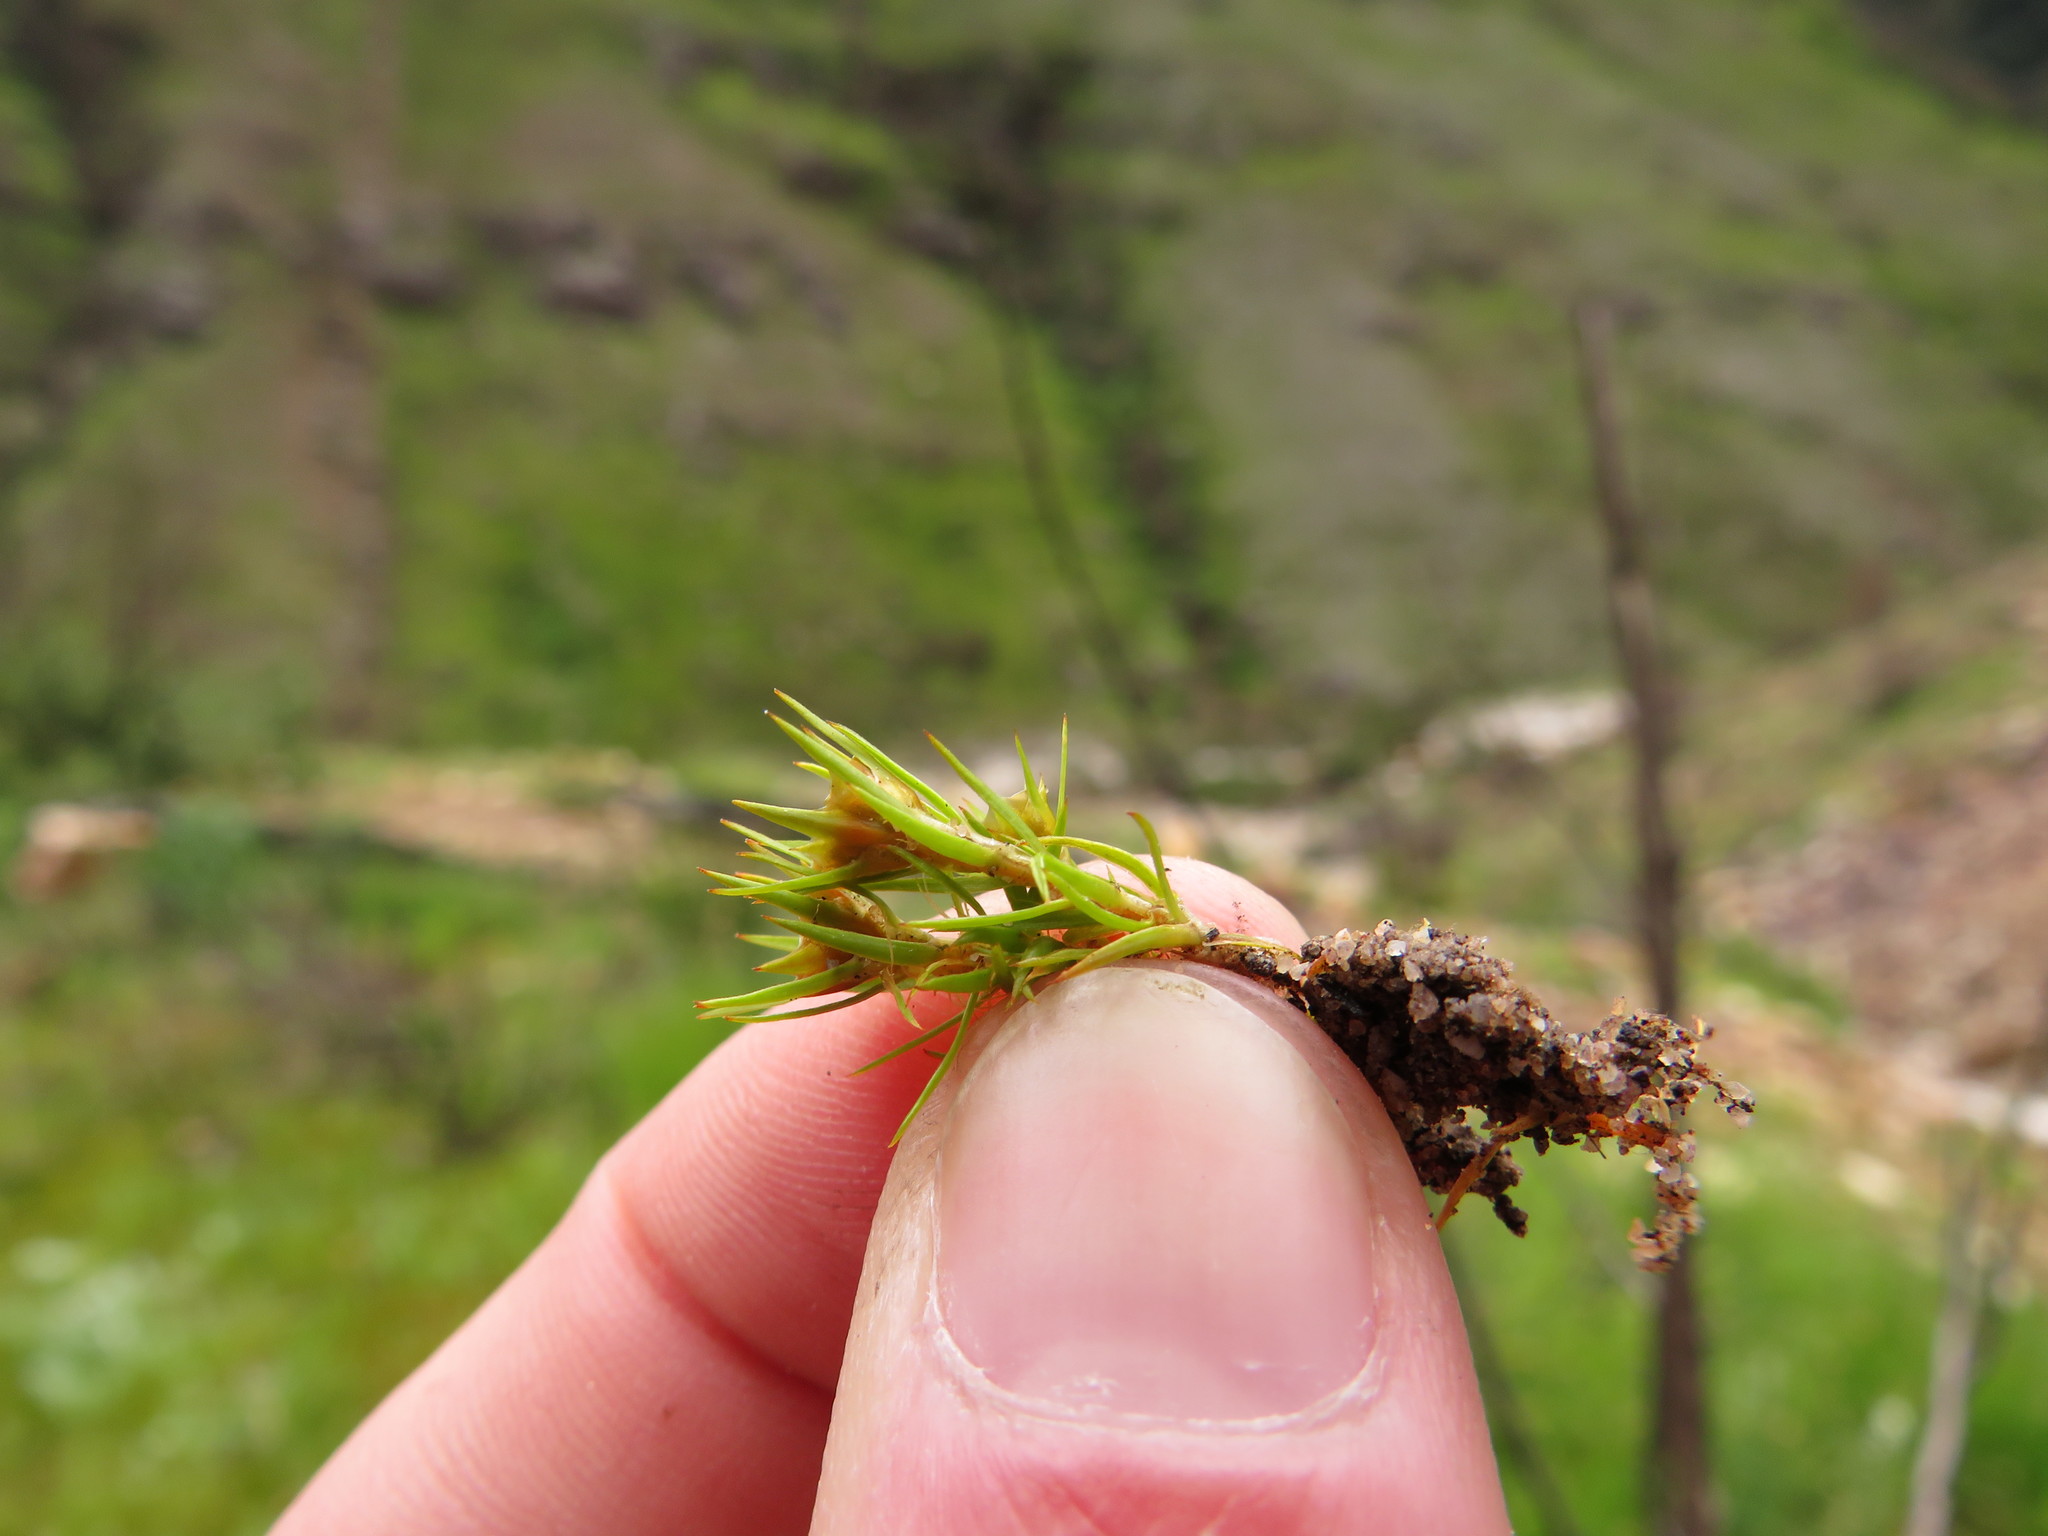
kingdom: Plantae
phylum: Bryophyta
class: Polytrichopsida
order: Polytrichales
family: Polytrichaceae
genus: Polytrichum
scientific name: Polytrichum perigoniale
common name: Dense haircap moss
